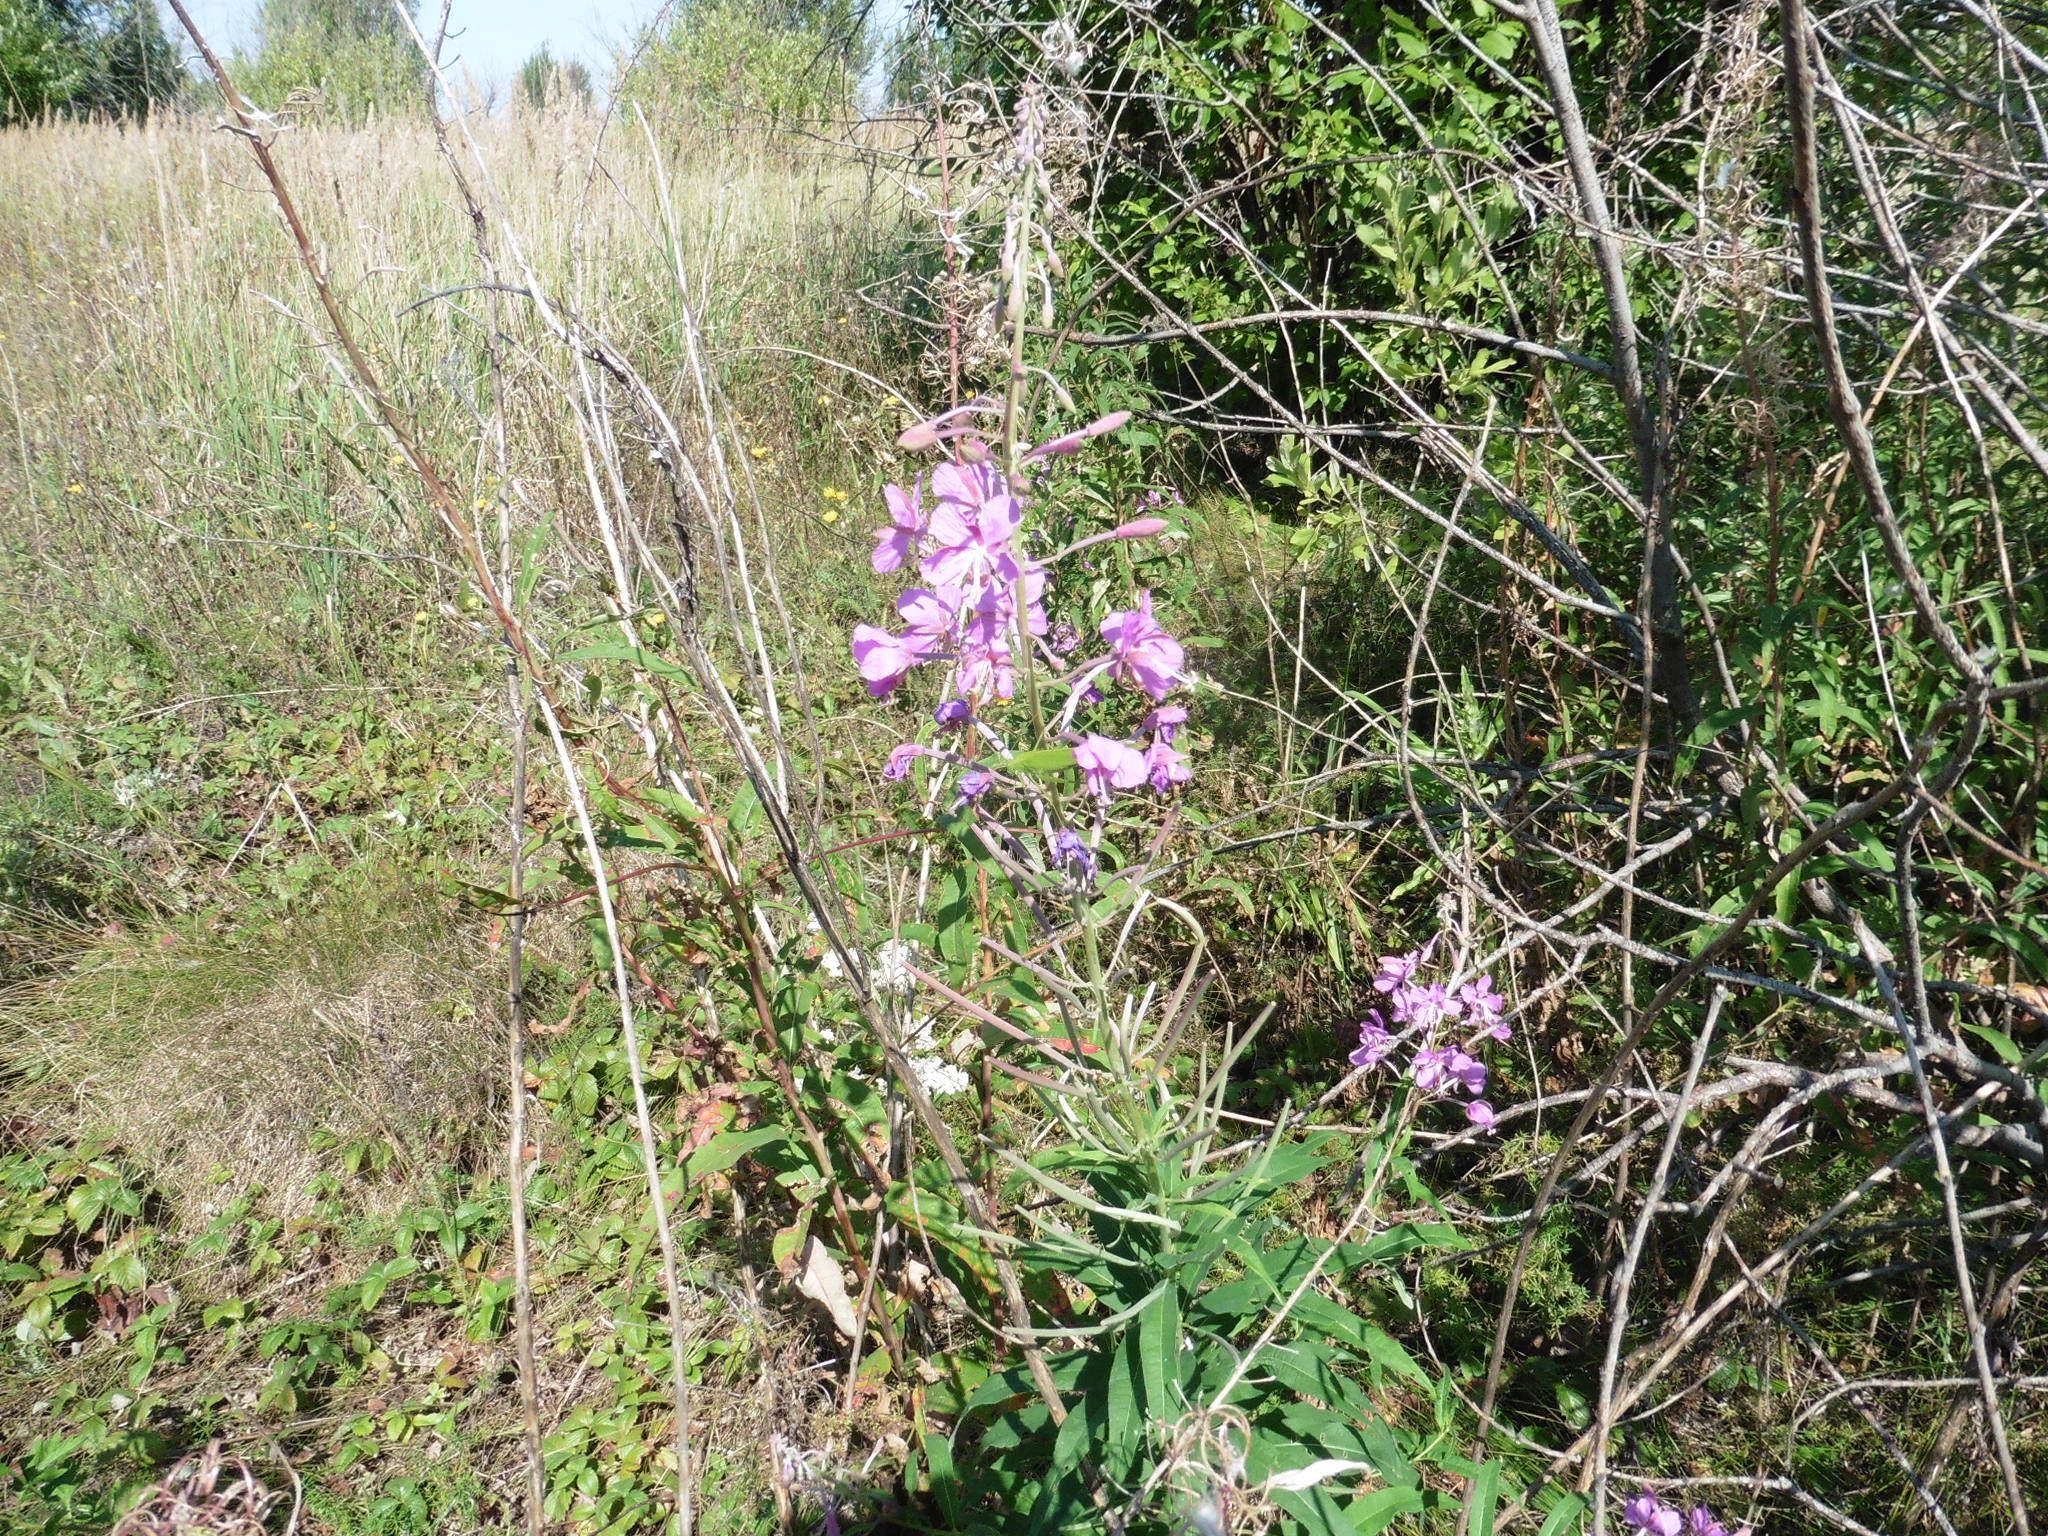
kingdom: Plantae
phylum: Tracheophyta
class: Magnoliopsida
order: Myrtales
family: Onagraceae
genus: Chamaenerion
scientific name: Chamaenerion angustifolium
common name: Fireweed
